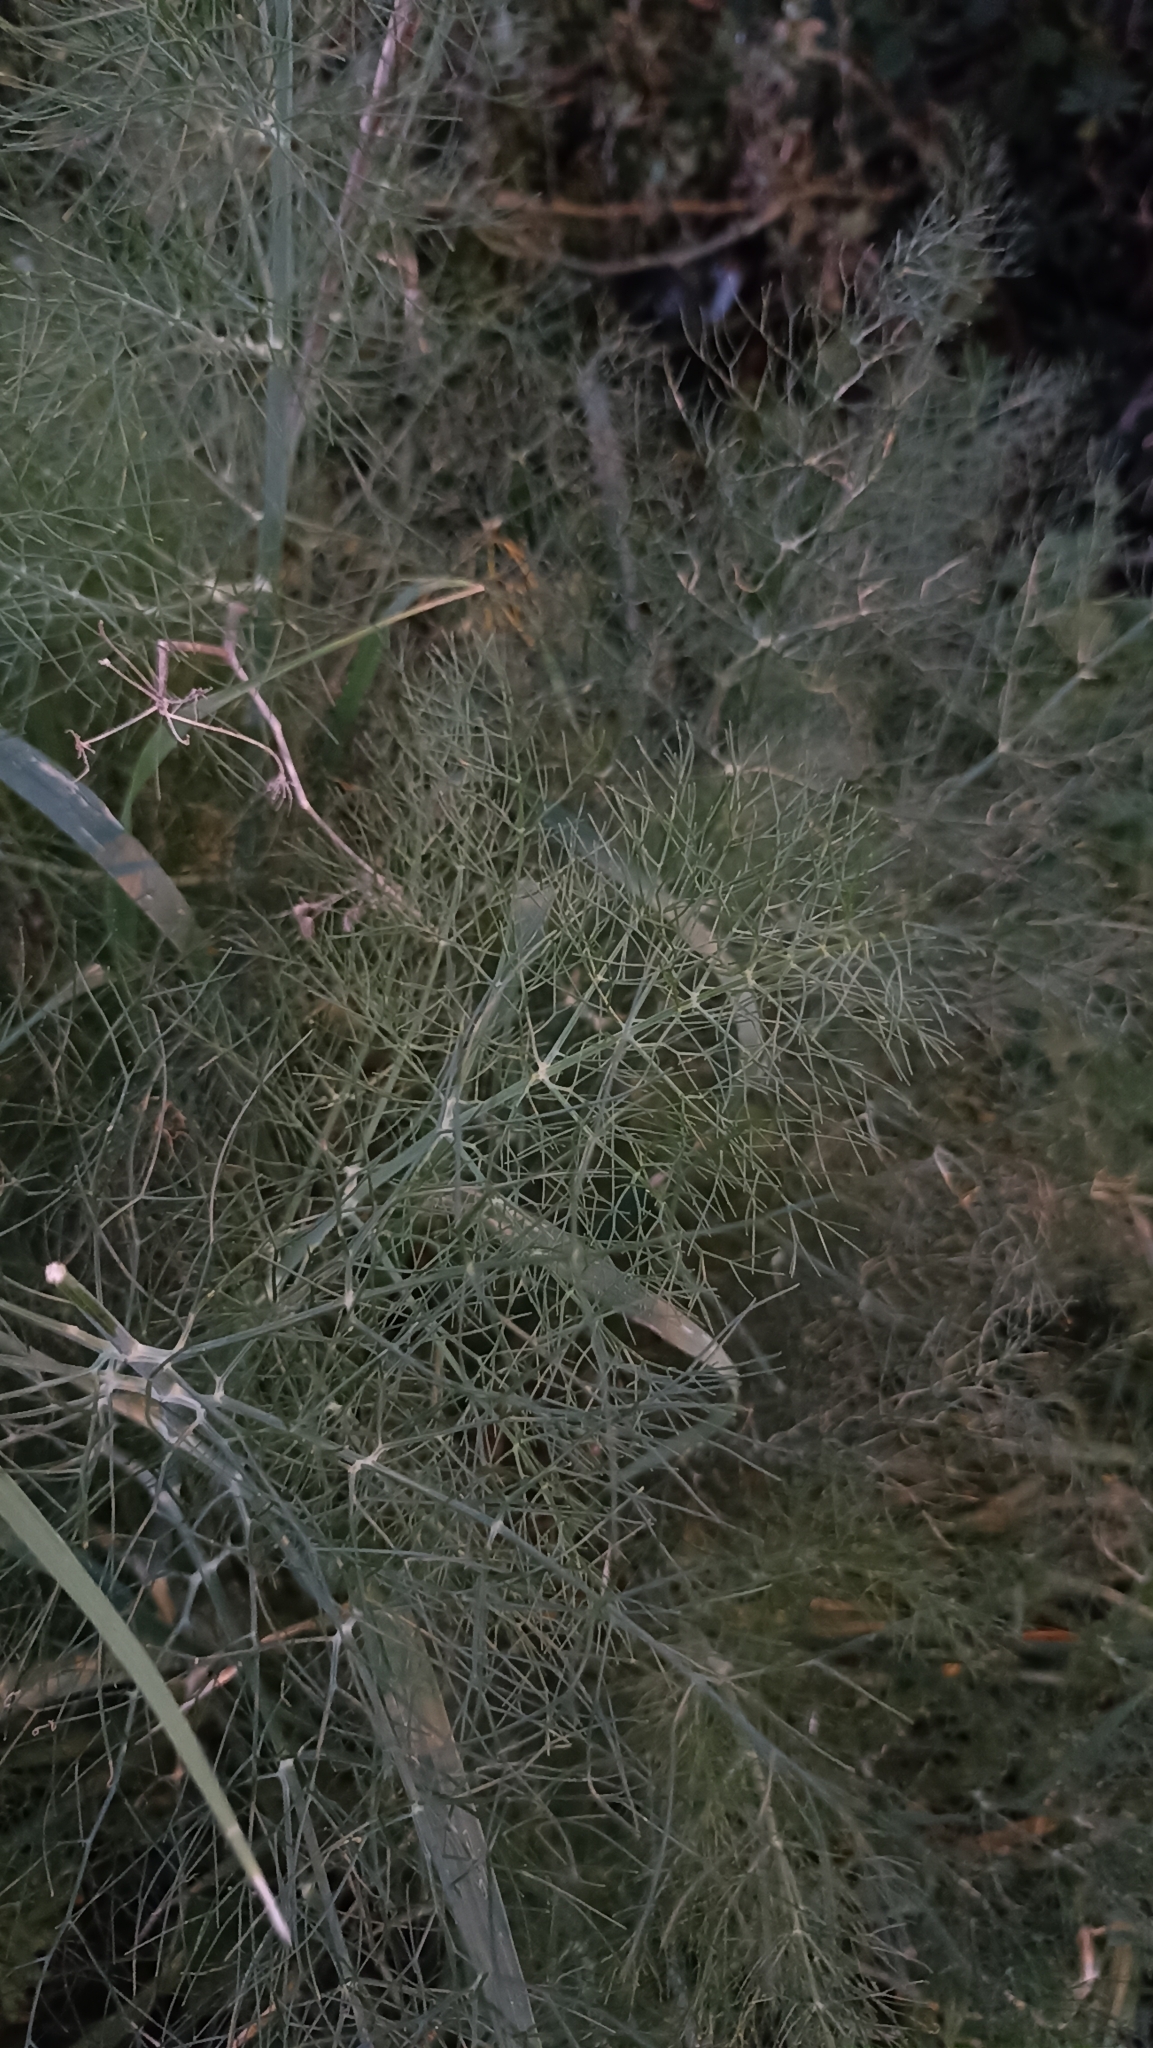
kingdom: Plantae
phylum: Tracheophyta
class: Magnoliopsida
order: Apiales
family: Apiaceae
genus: Foeniculum
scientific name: Foeniculum vulgare
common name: Fennel
